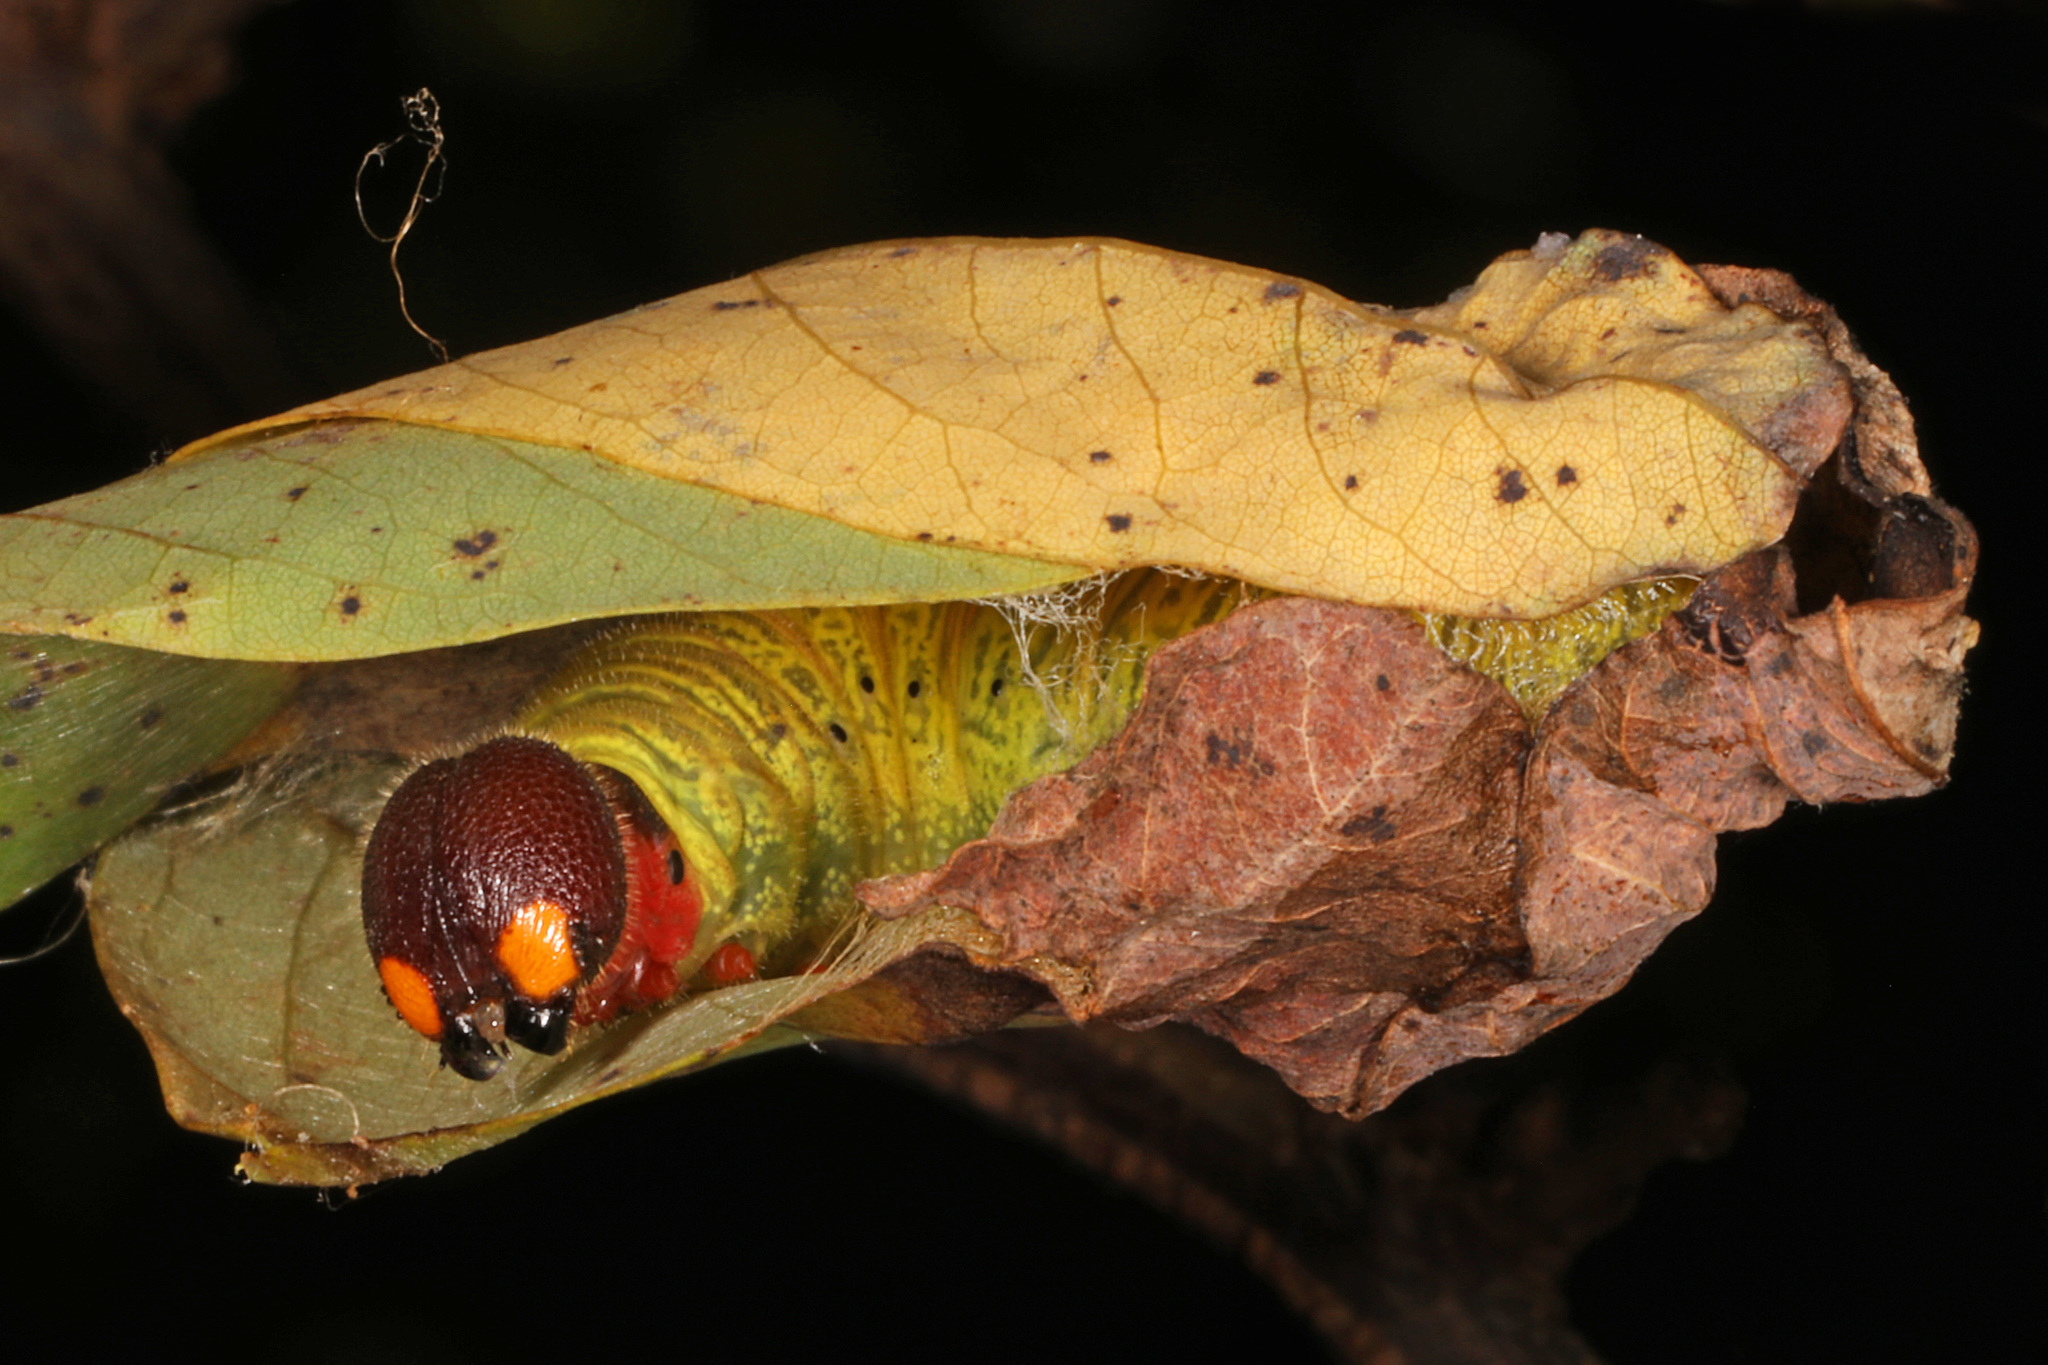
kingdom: Animalia
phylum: Arthropoda
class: Insecta
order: Lepidoptera
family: Hesperiidae
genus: Epargyreus
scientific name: Epargyreus clarus
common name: Silver-spotted skipper
